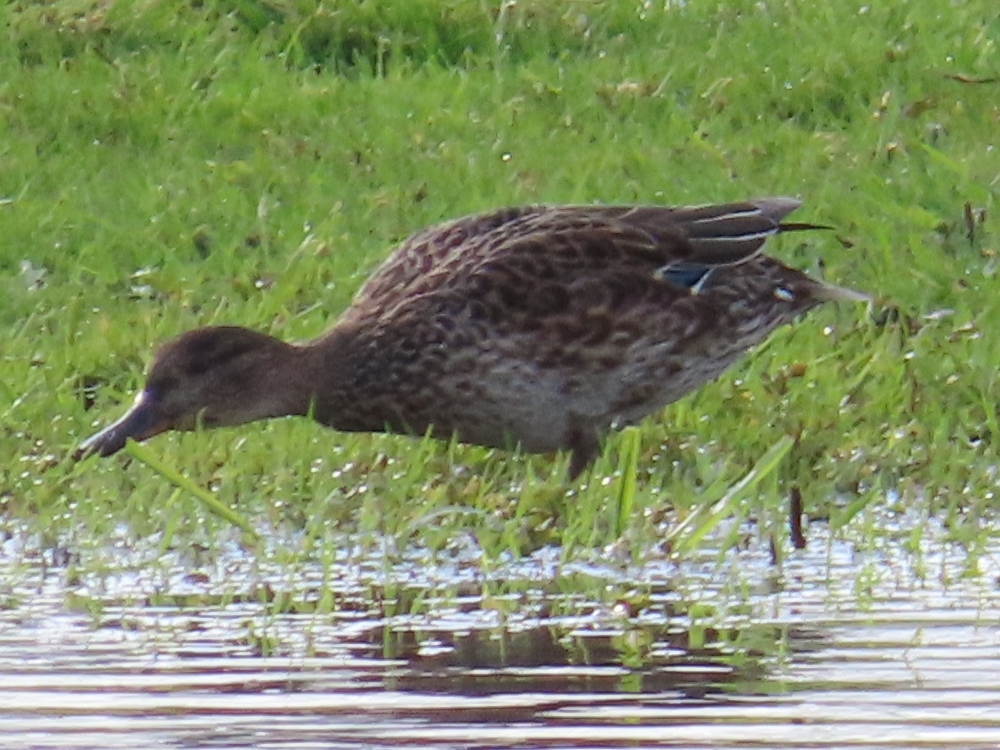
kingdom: Animalia
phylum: Chordata
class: Aves
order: Anseriformes
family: Anatidae
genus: Anas
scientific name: Anas crecca
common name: Eurasian teal
